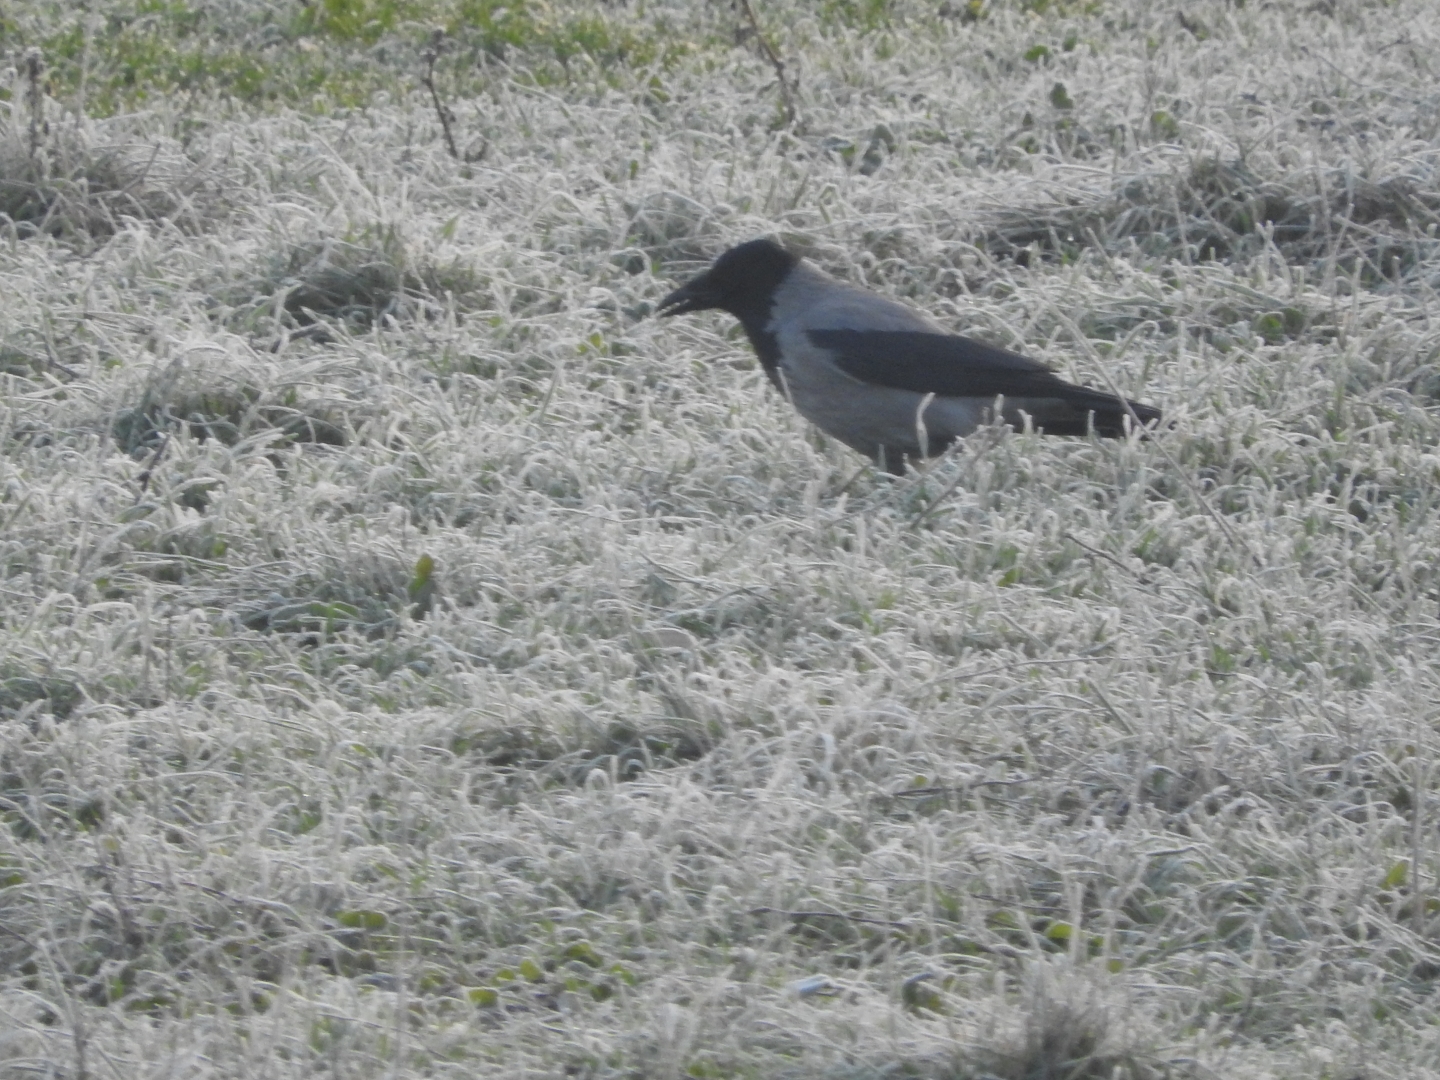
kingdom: Animalia
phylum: Chordata
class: Aves
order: Passeriformes
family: Corvidae
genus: Corvus
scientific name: Corvus cornix
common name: Hooded crow
